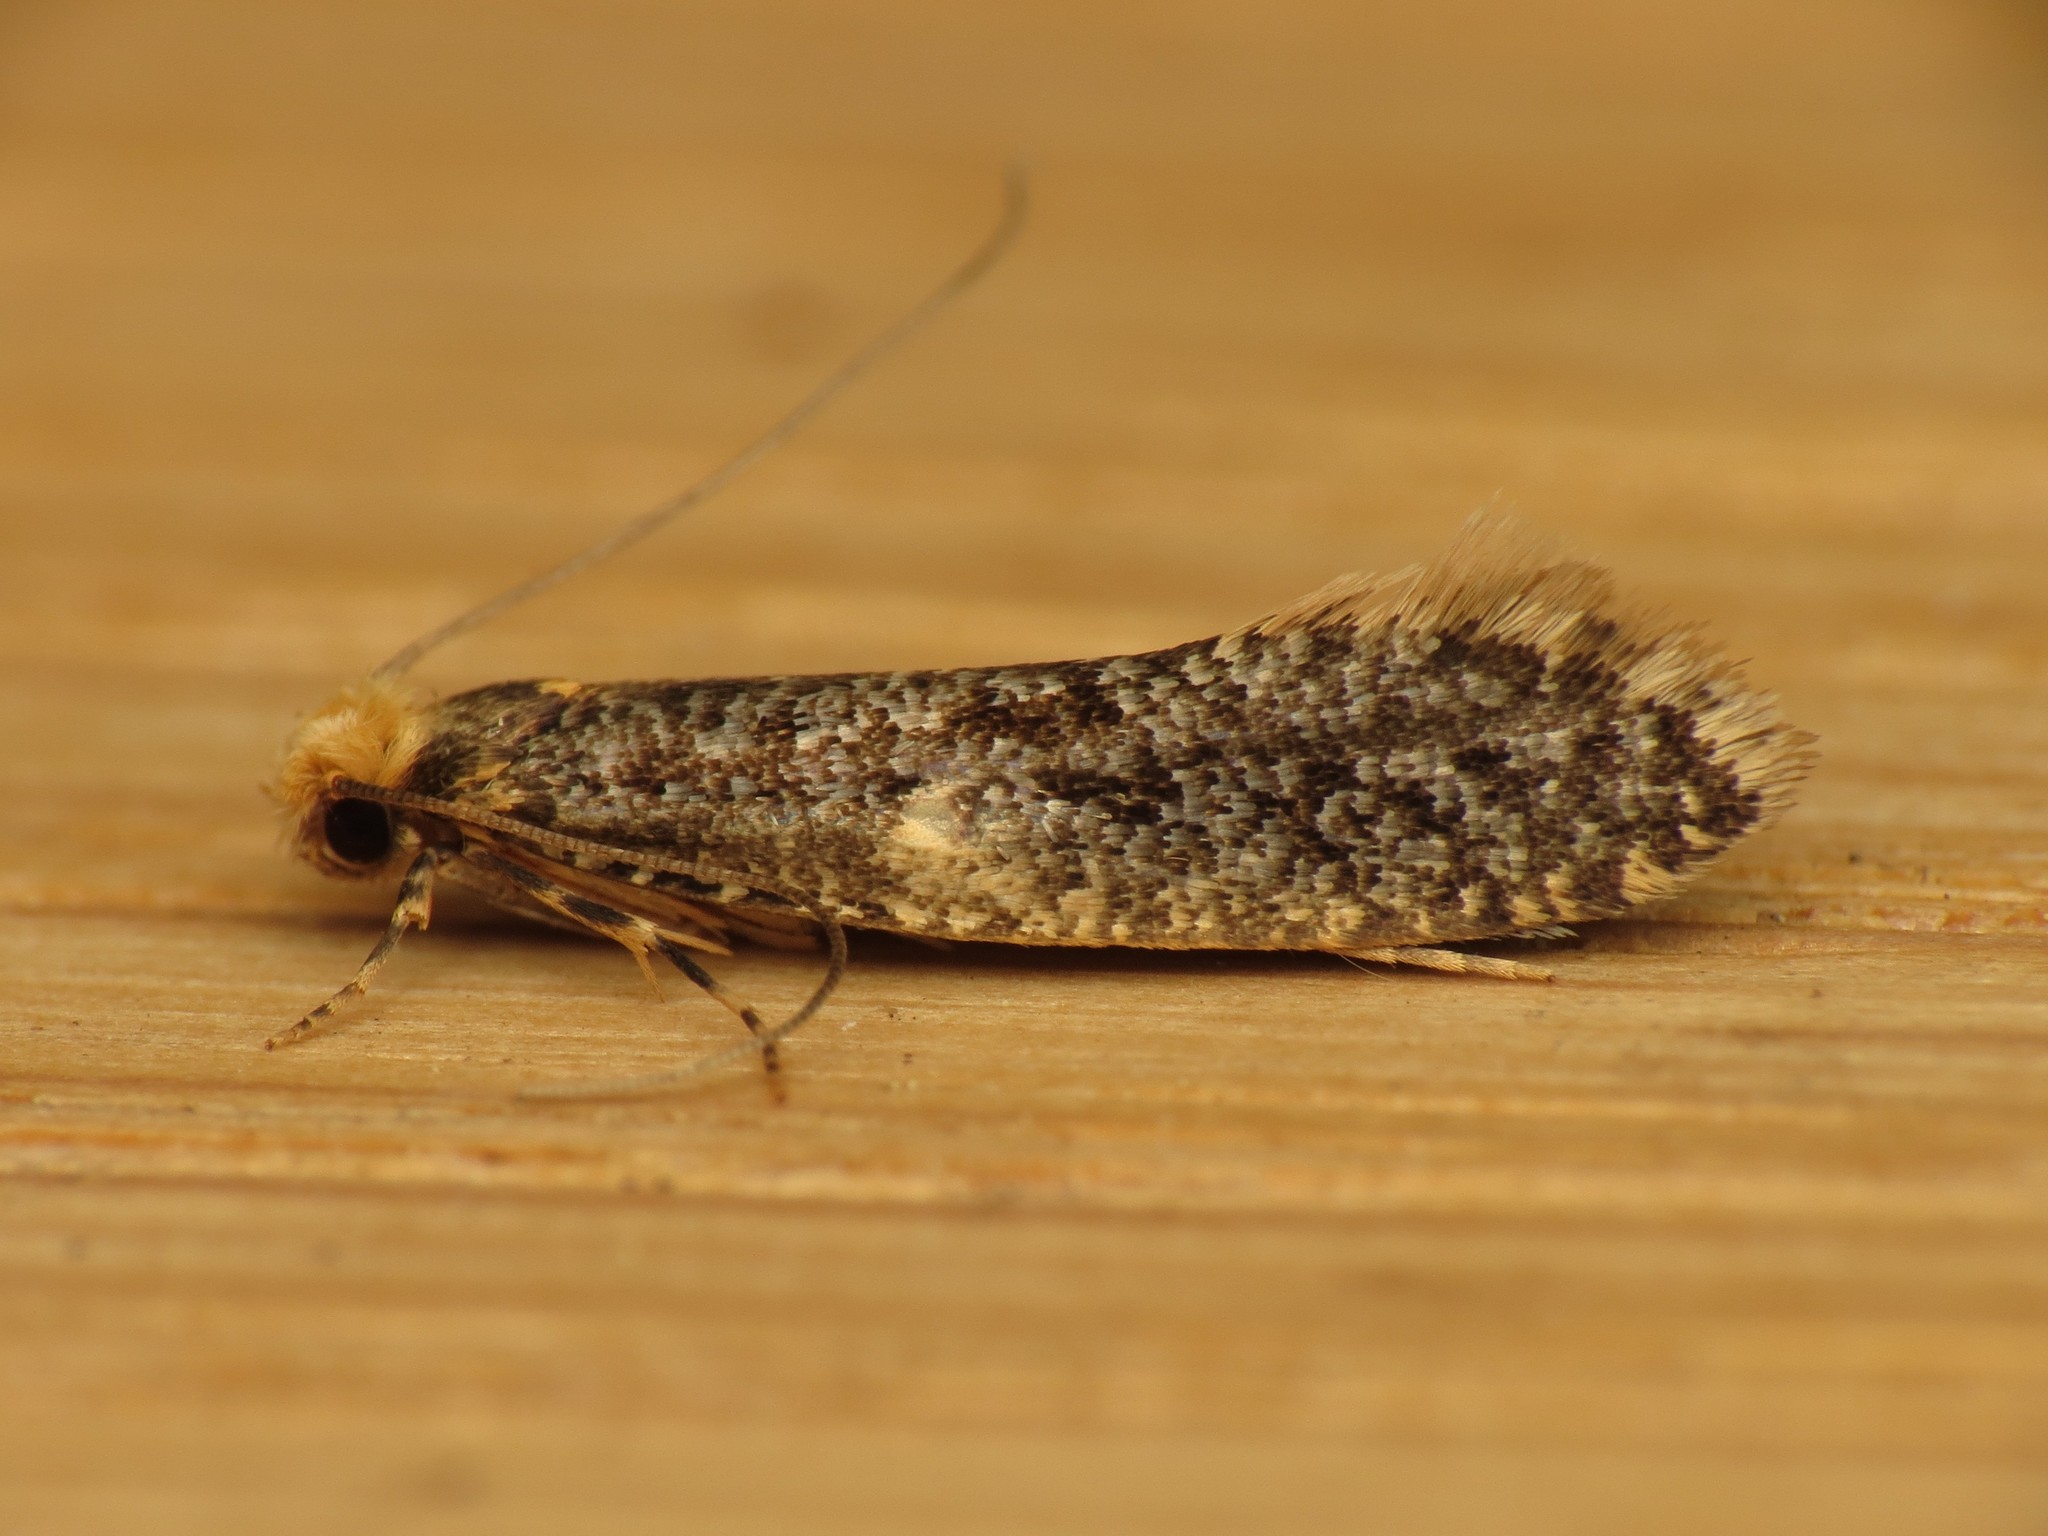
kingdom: Animalia
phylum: Arthropoda
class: Insecta
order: Lepidoptera
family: Tineidae
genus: Monopis
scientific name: Monopis laevigella
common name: Skin moth
